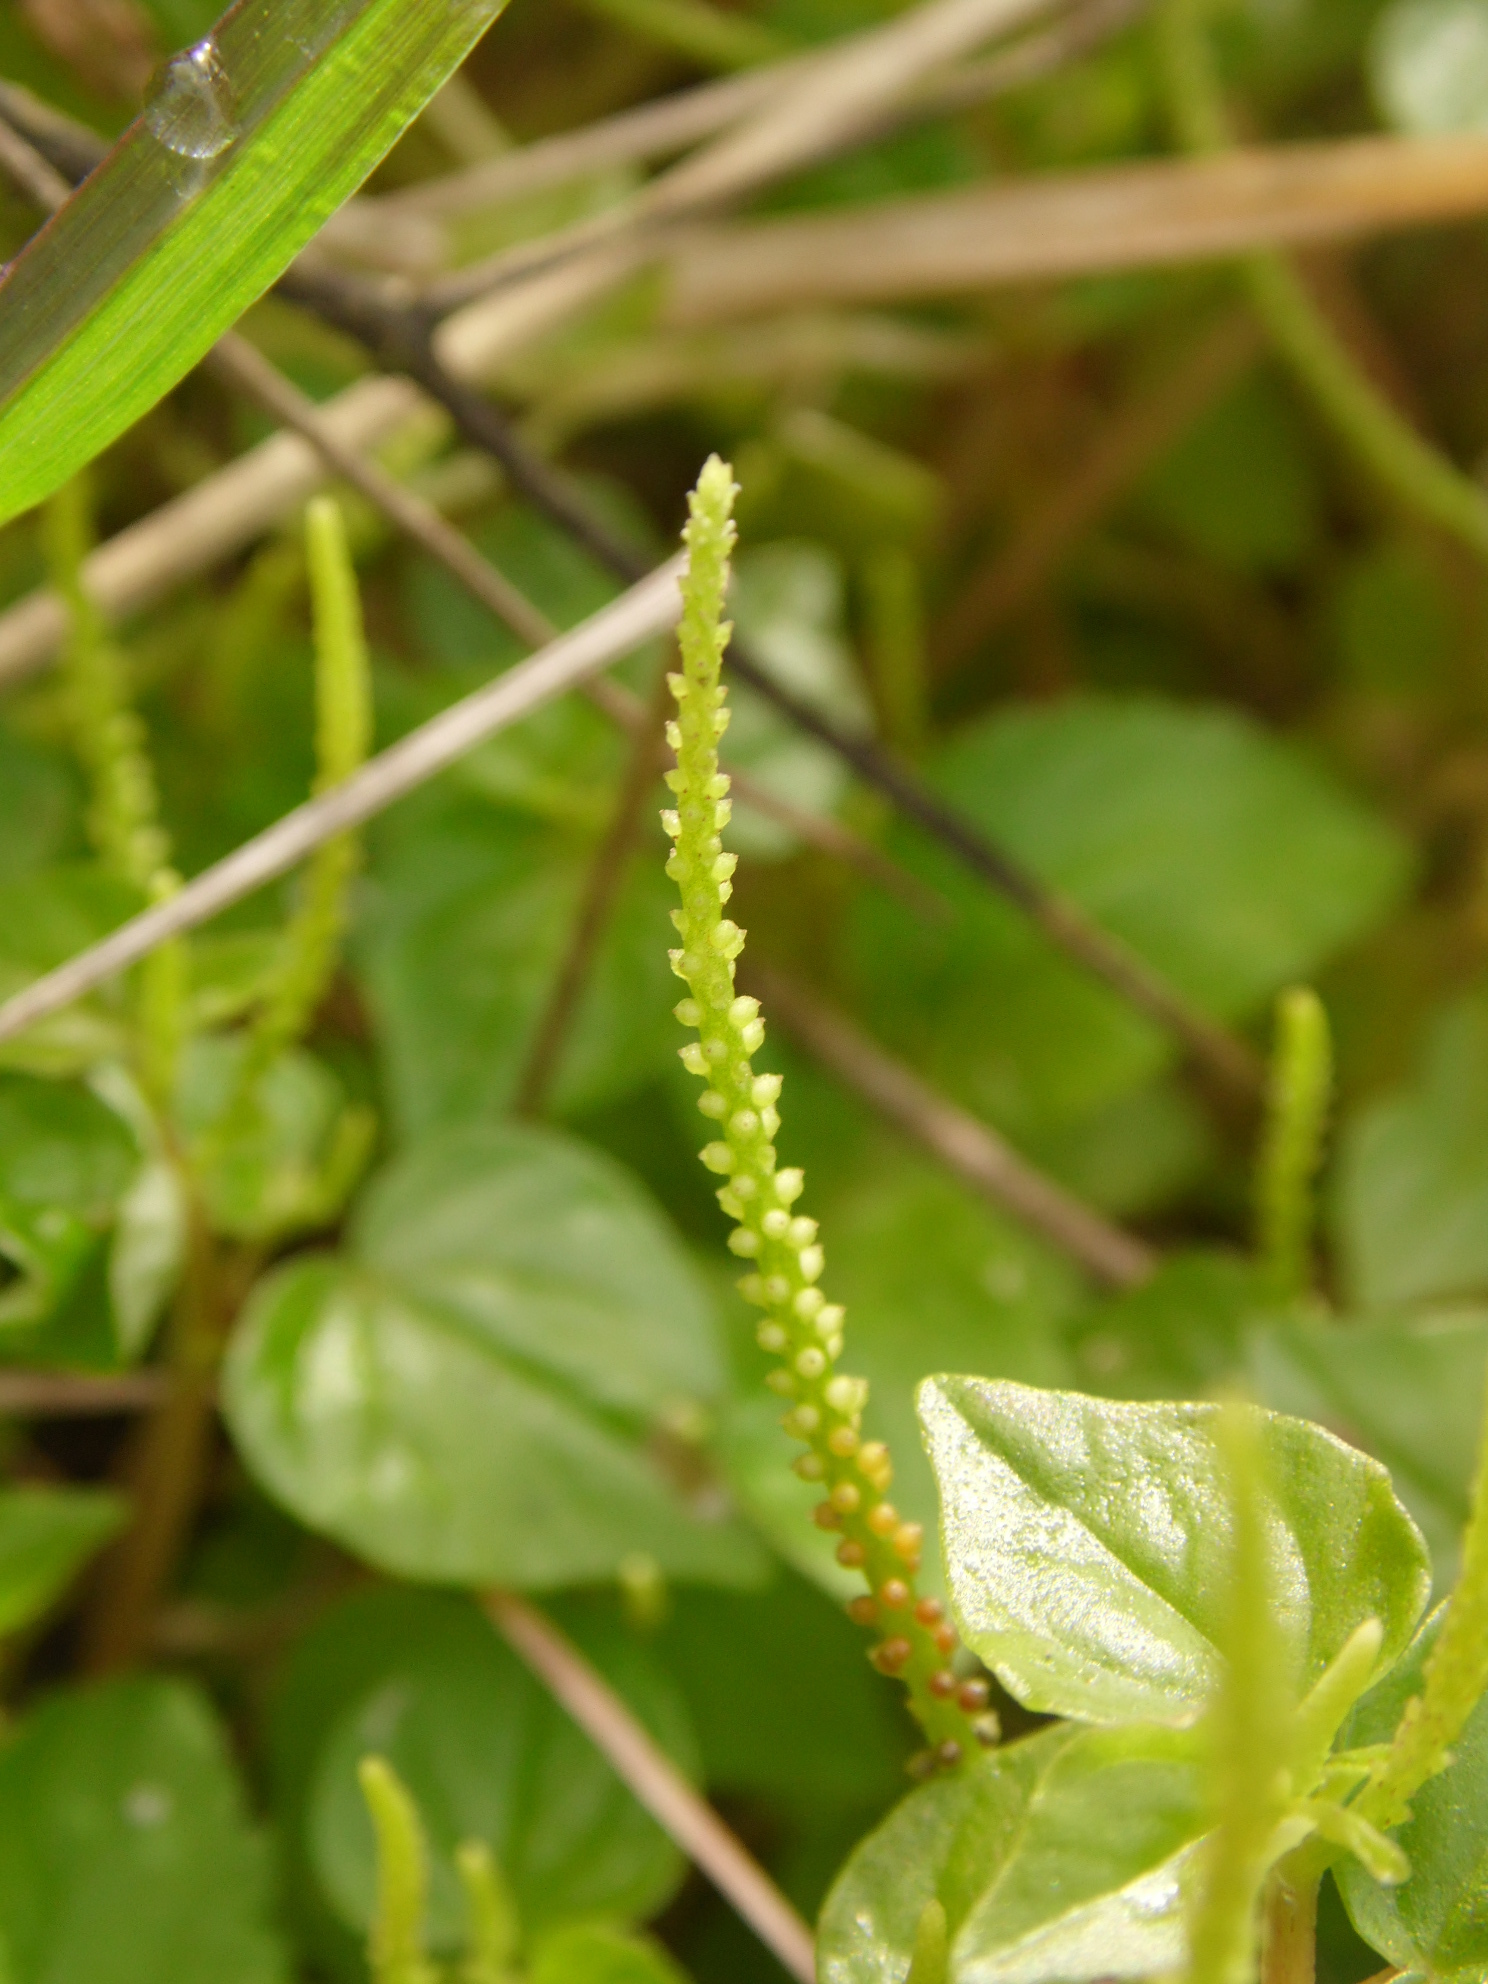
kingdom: Plantae
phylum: Tracheophyta
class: Magnoliopsida
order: Piperales
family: Piperaceae
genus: Peperomia
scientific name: Peperomia pellucida
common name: Man to man
